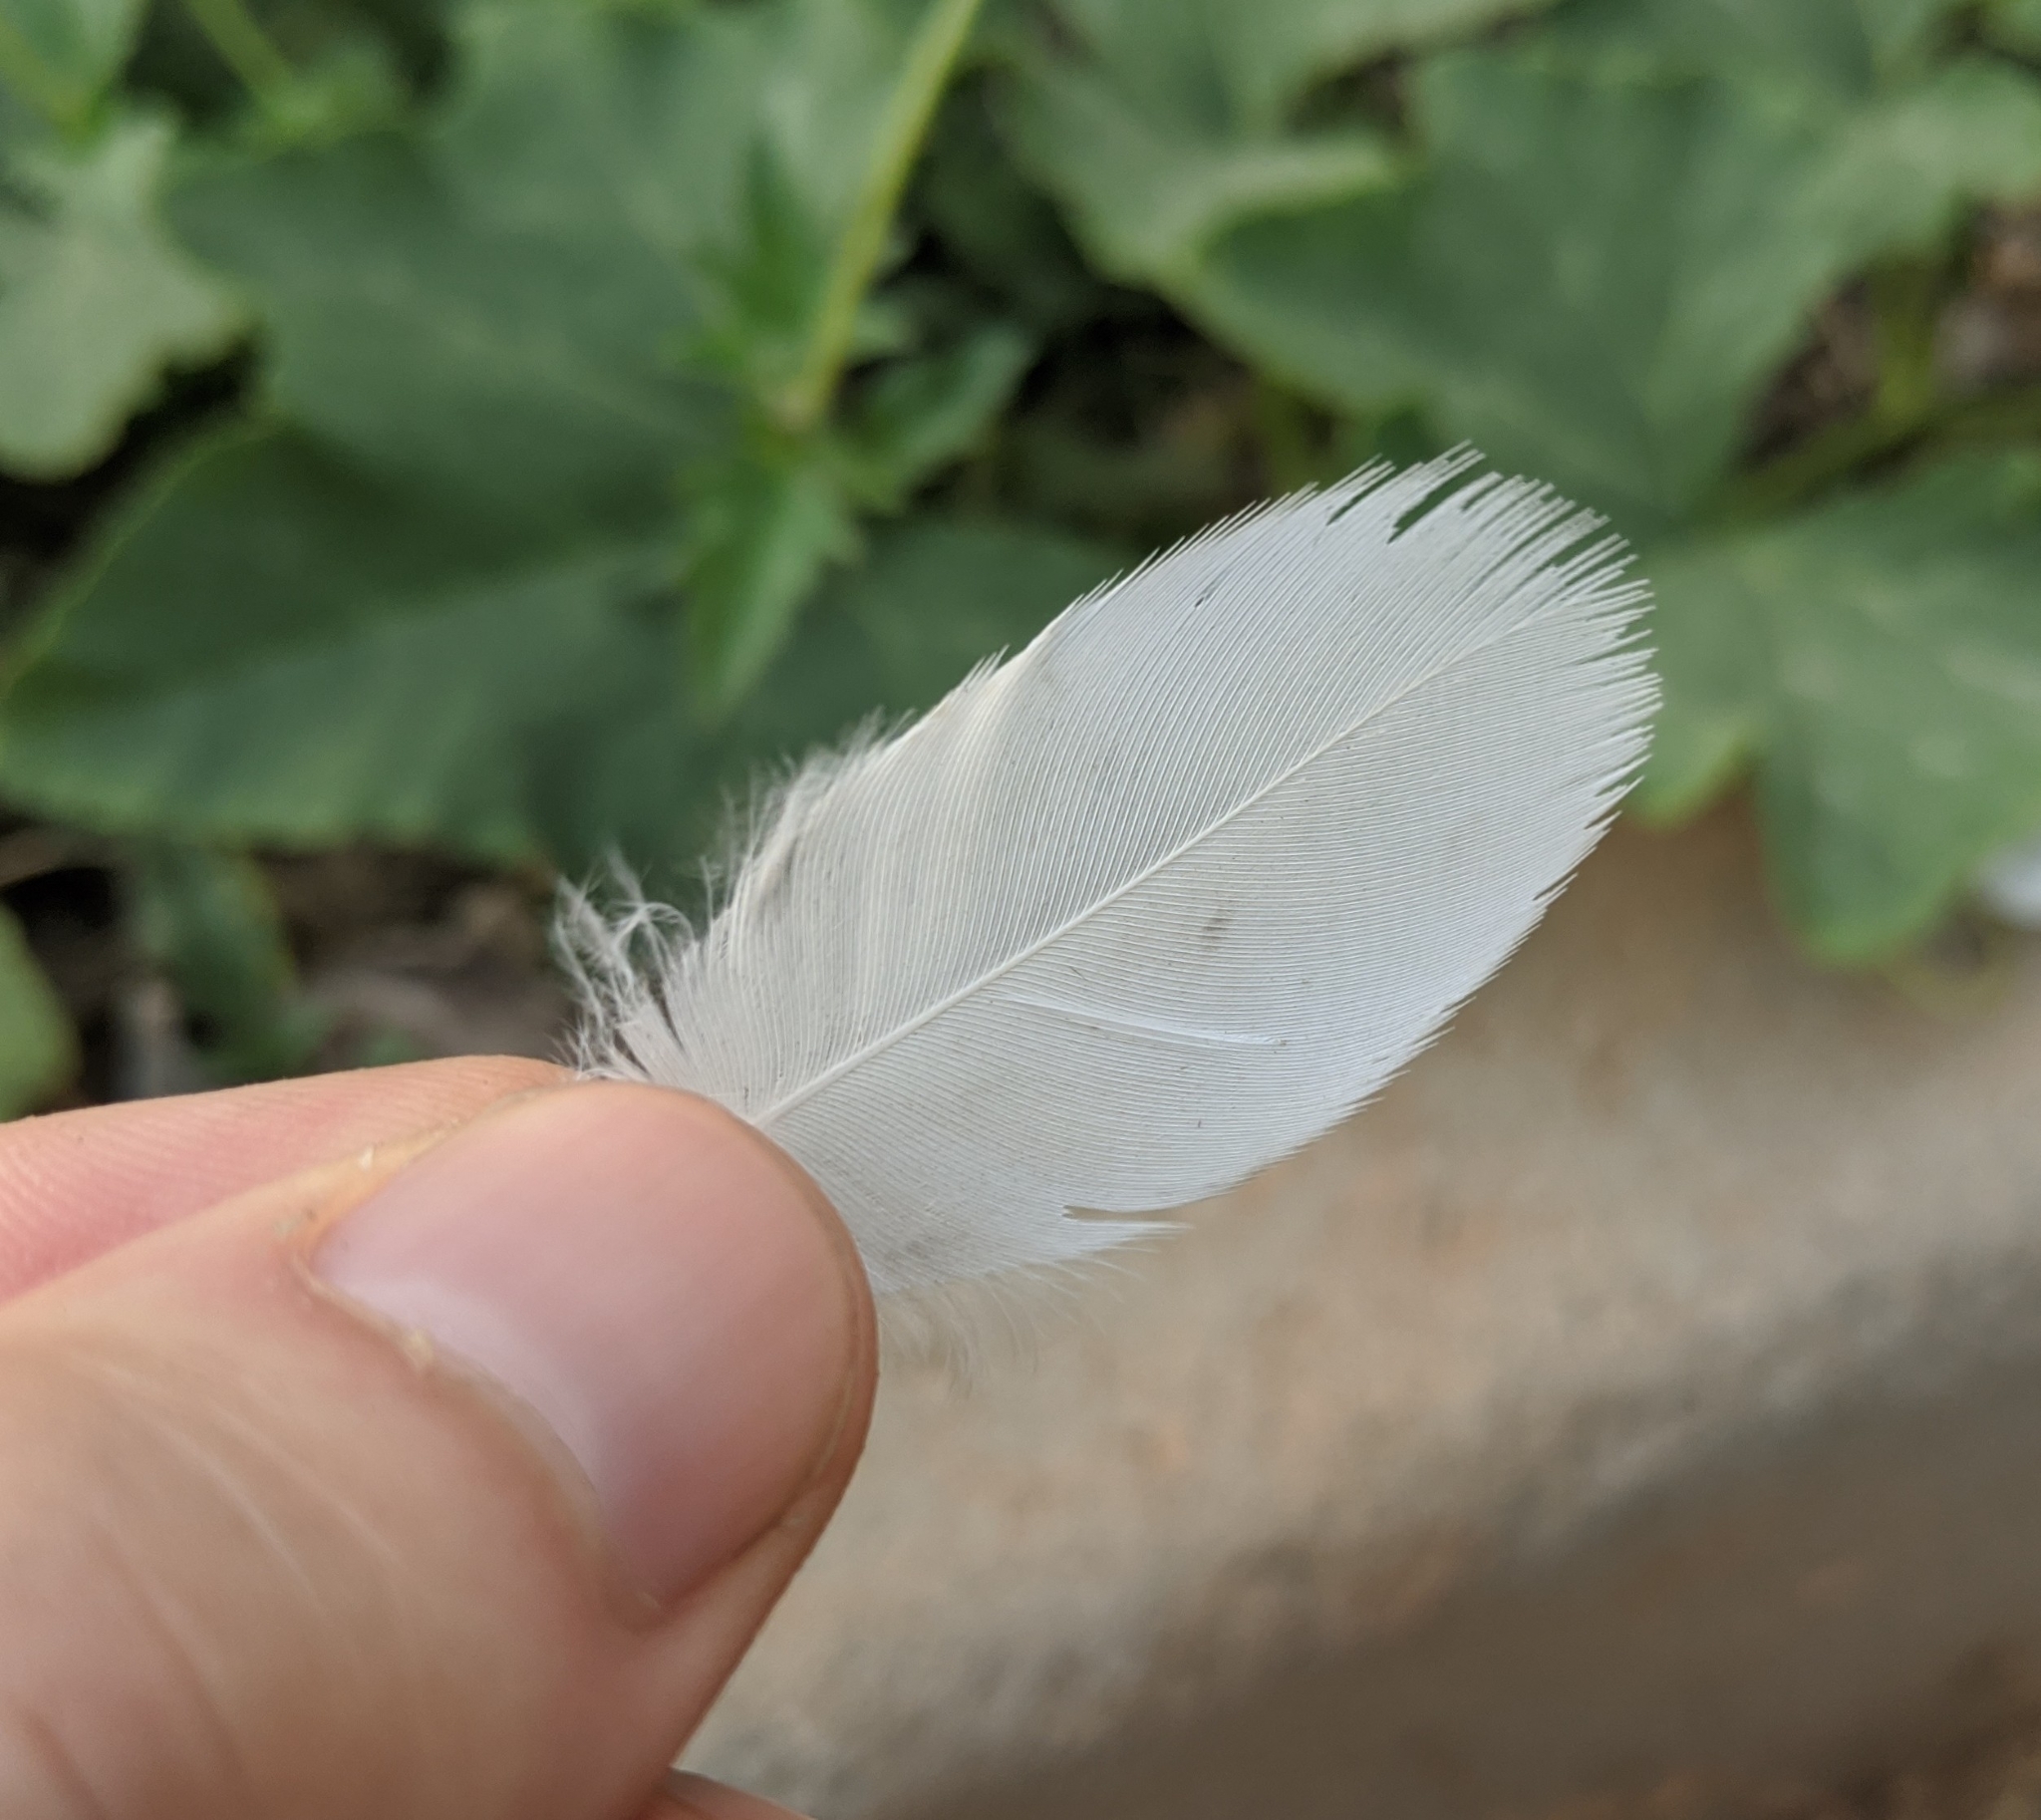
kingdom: Animalia
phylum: Chordata
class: Aves
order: Pelecaniformes
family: Ardeidae
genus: Bubulcus
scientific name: Bubulcus ibis
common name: Cattle egret
